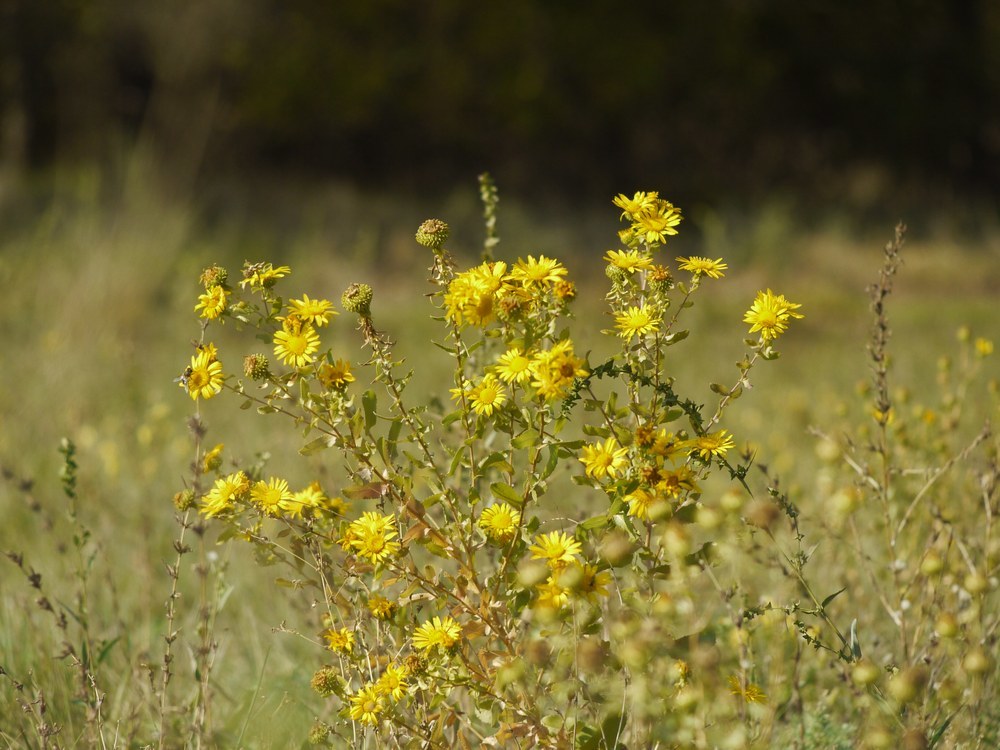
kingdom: Plantae
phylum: Tracheophyta
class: Magnoliopsida
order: Asterales
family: Asteraceae
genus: Grindelia
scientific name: Grindelia squarrosa
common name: Curly-cup gumweed
